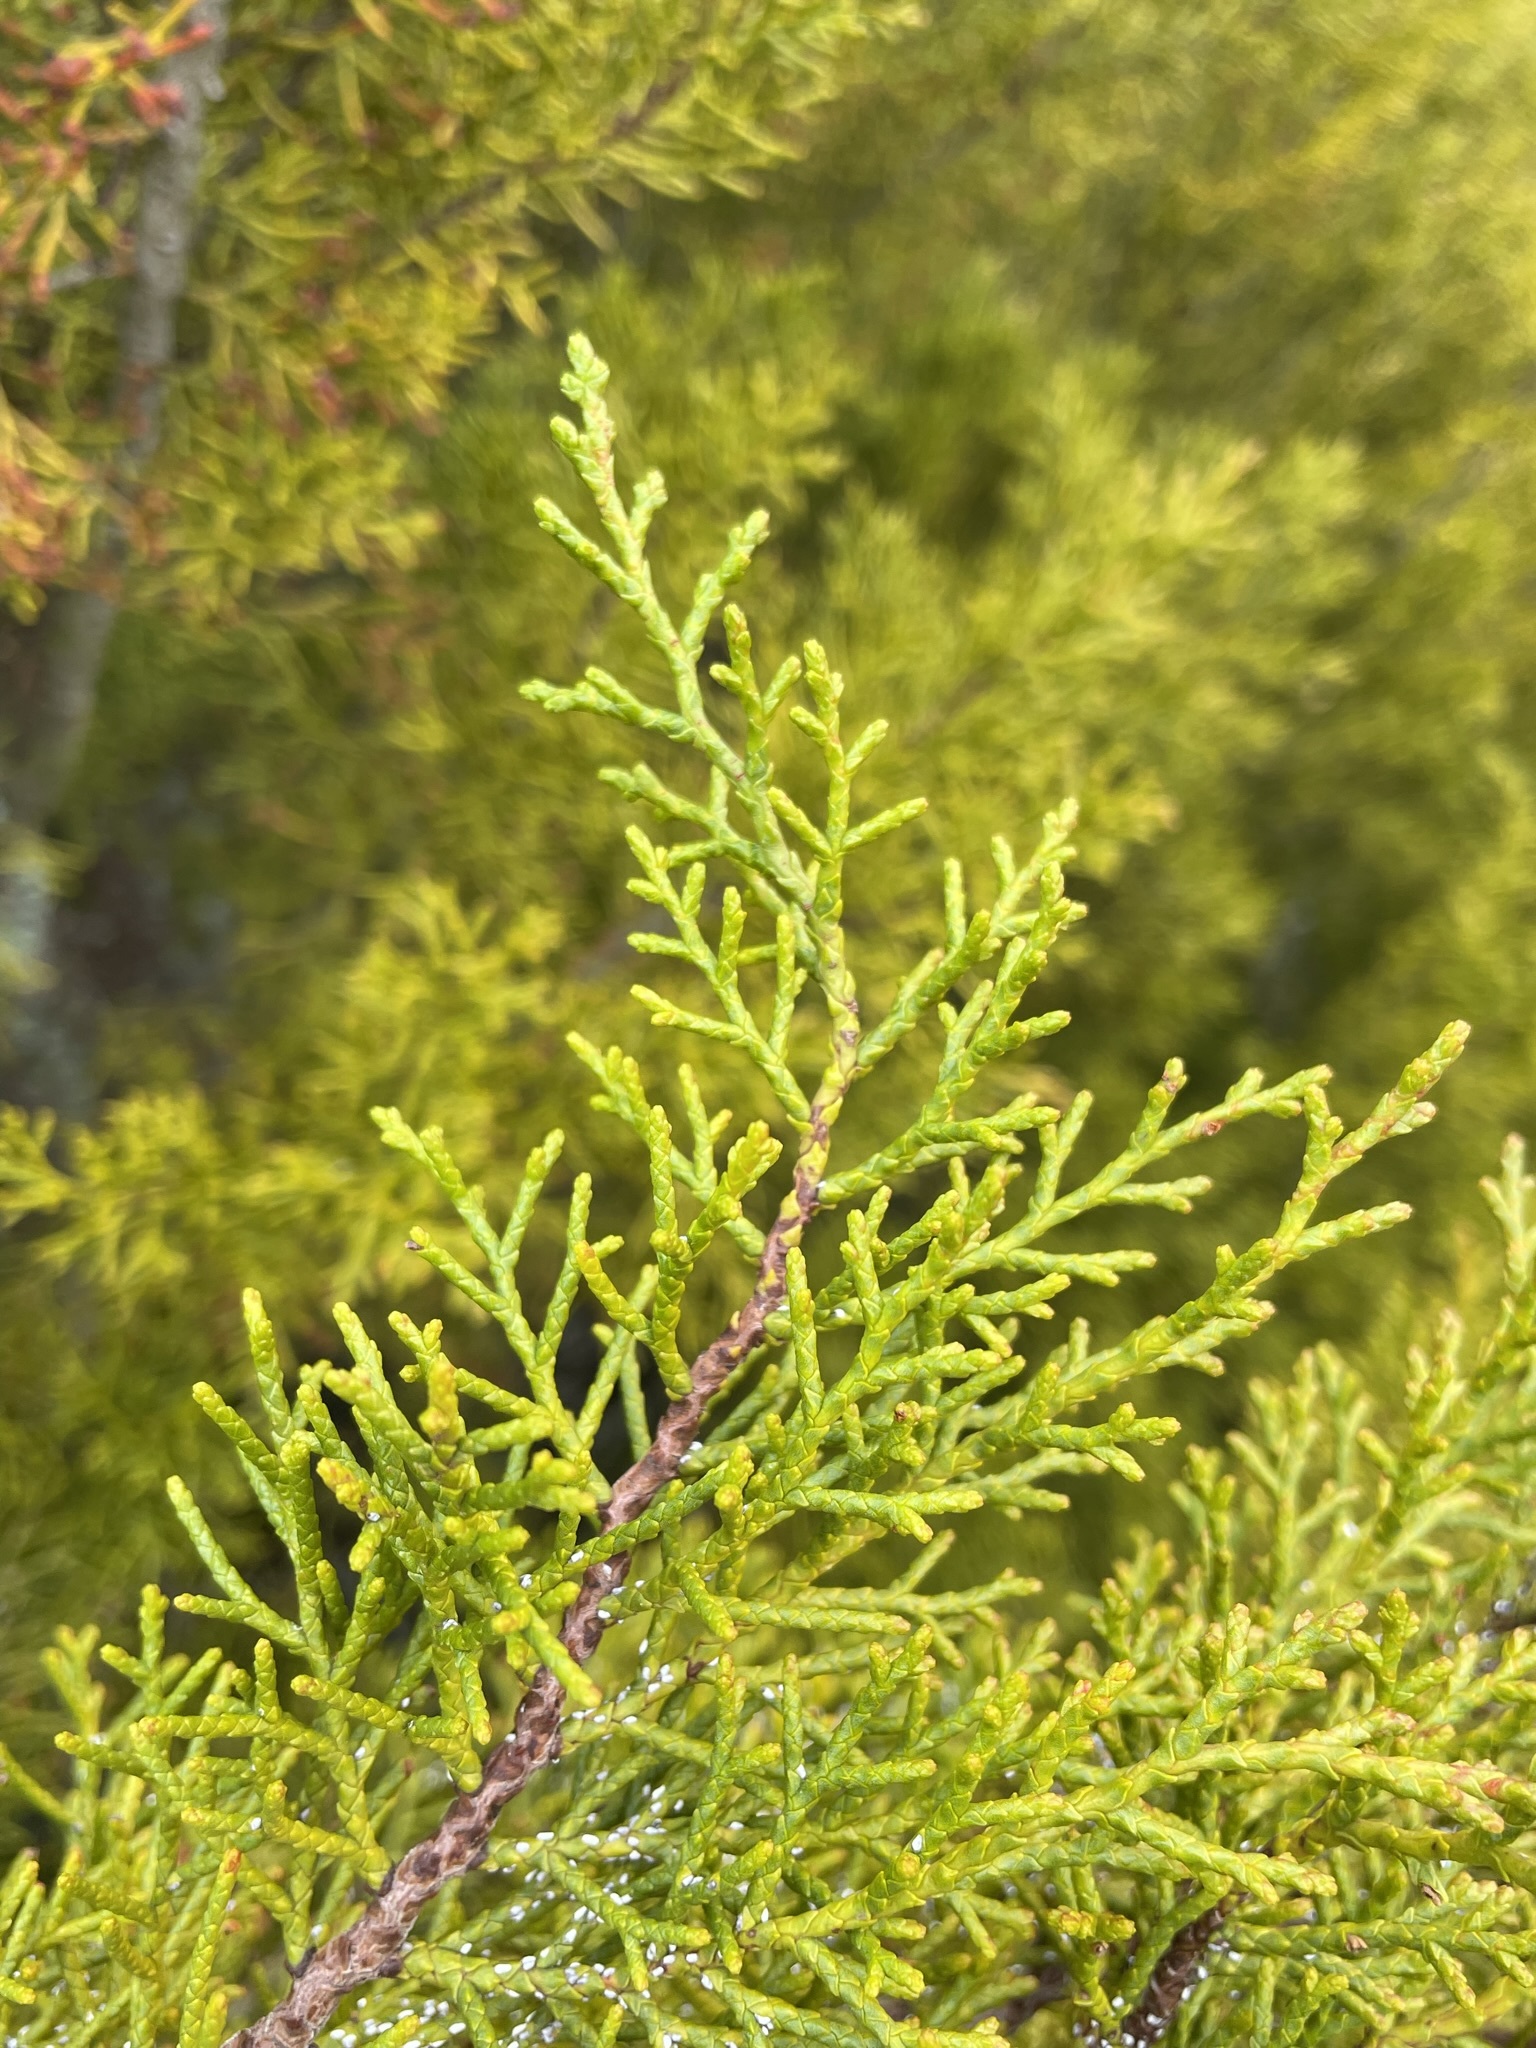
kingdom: Plantae
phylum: Tracheophyta
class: Pinopsida
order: Pinales
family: Podocarpaceae
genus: Halocarpus
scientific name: Halocarpus bidwillii
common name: Bog pine
